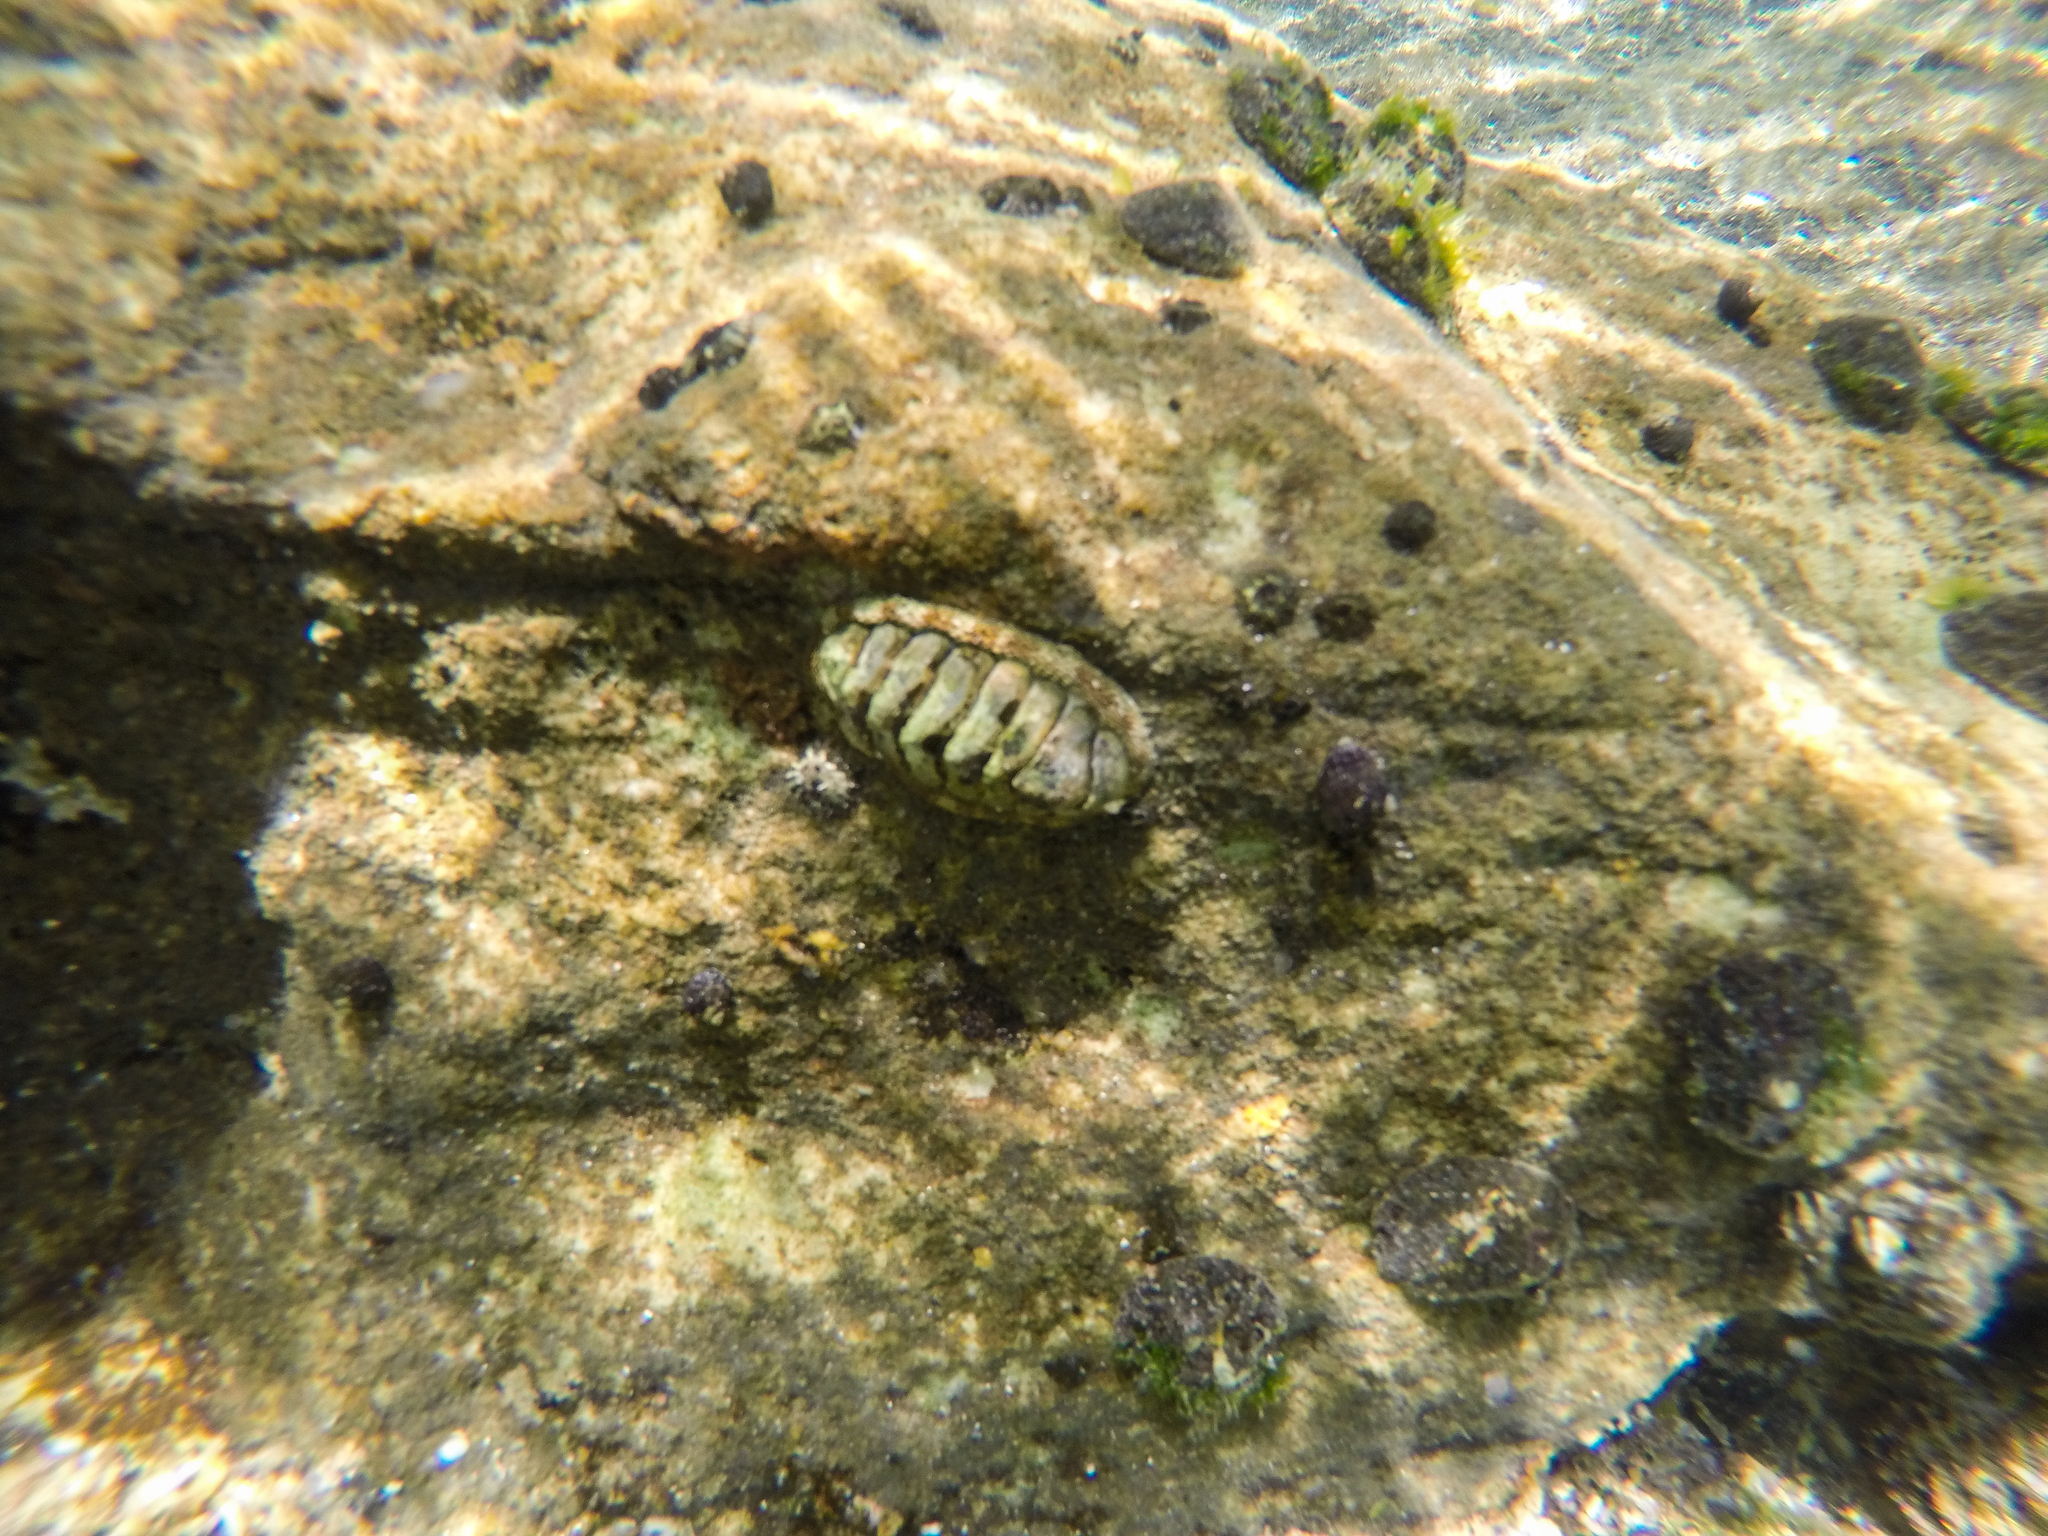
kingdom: Animalia
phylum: Mollusca
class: Polyplacophora
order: Chitonida
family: Chitonidae
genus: Sypharochiton
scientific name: Sypharochiton pelliserpentis
